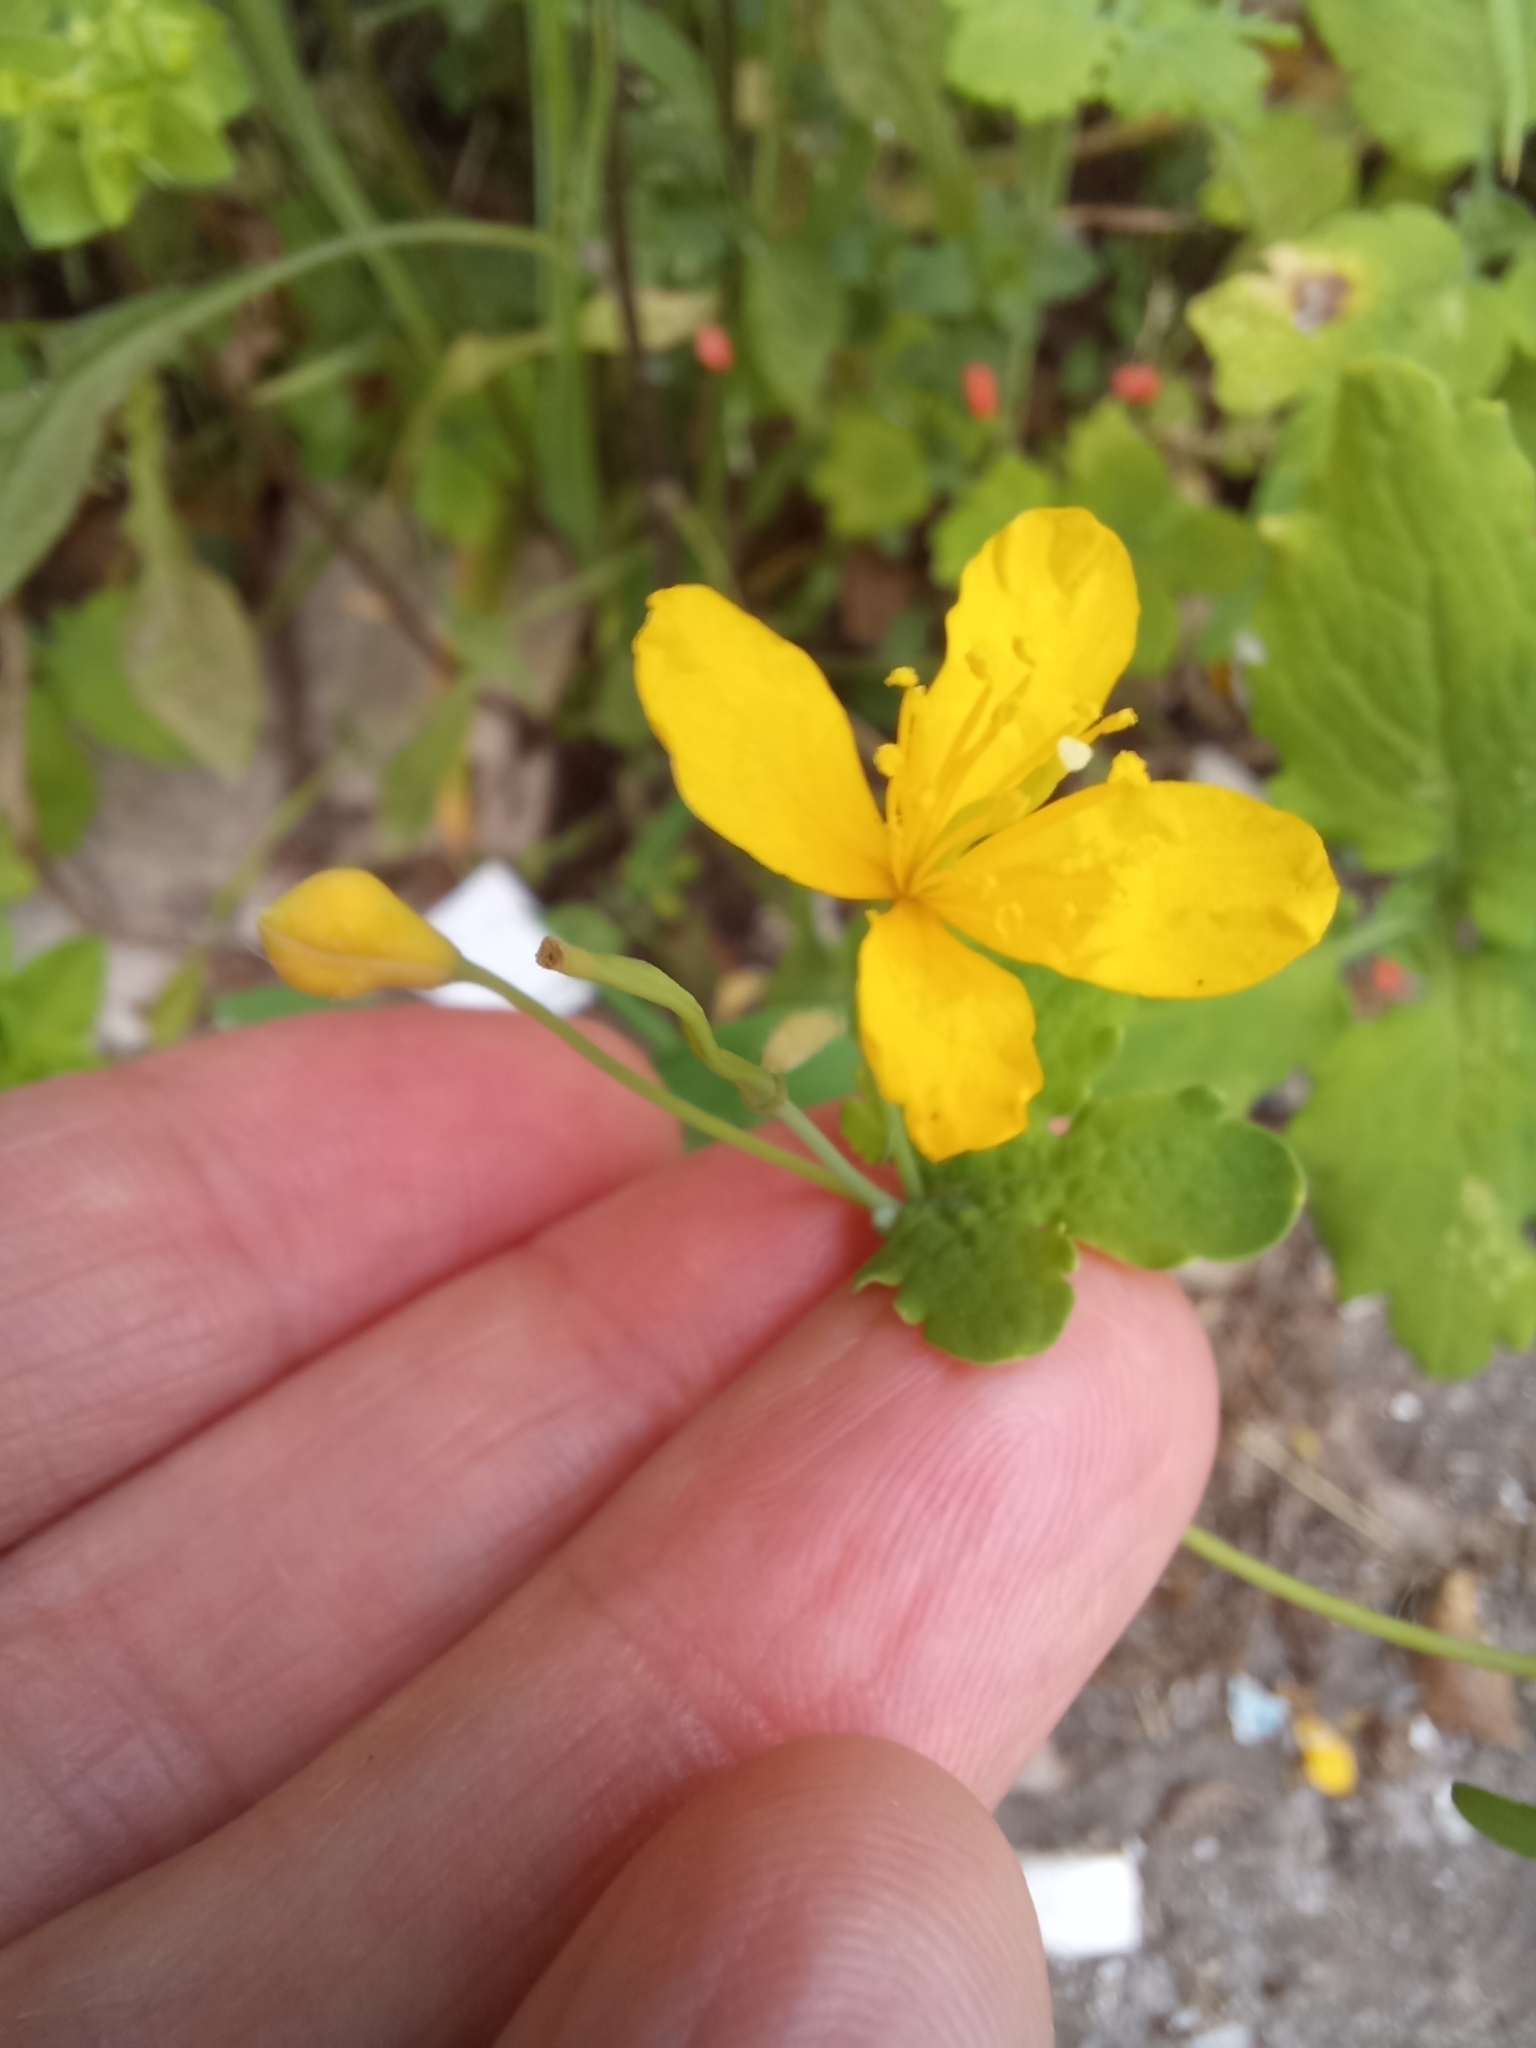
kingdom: Plantae
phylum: Tracheophyta
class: Magnoliopsida
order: Ranunculales
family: Papaveraceae
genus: Chelidonium
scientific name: Chelidonium majus
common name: Greater celandine
